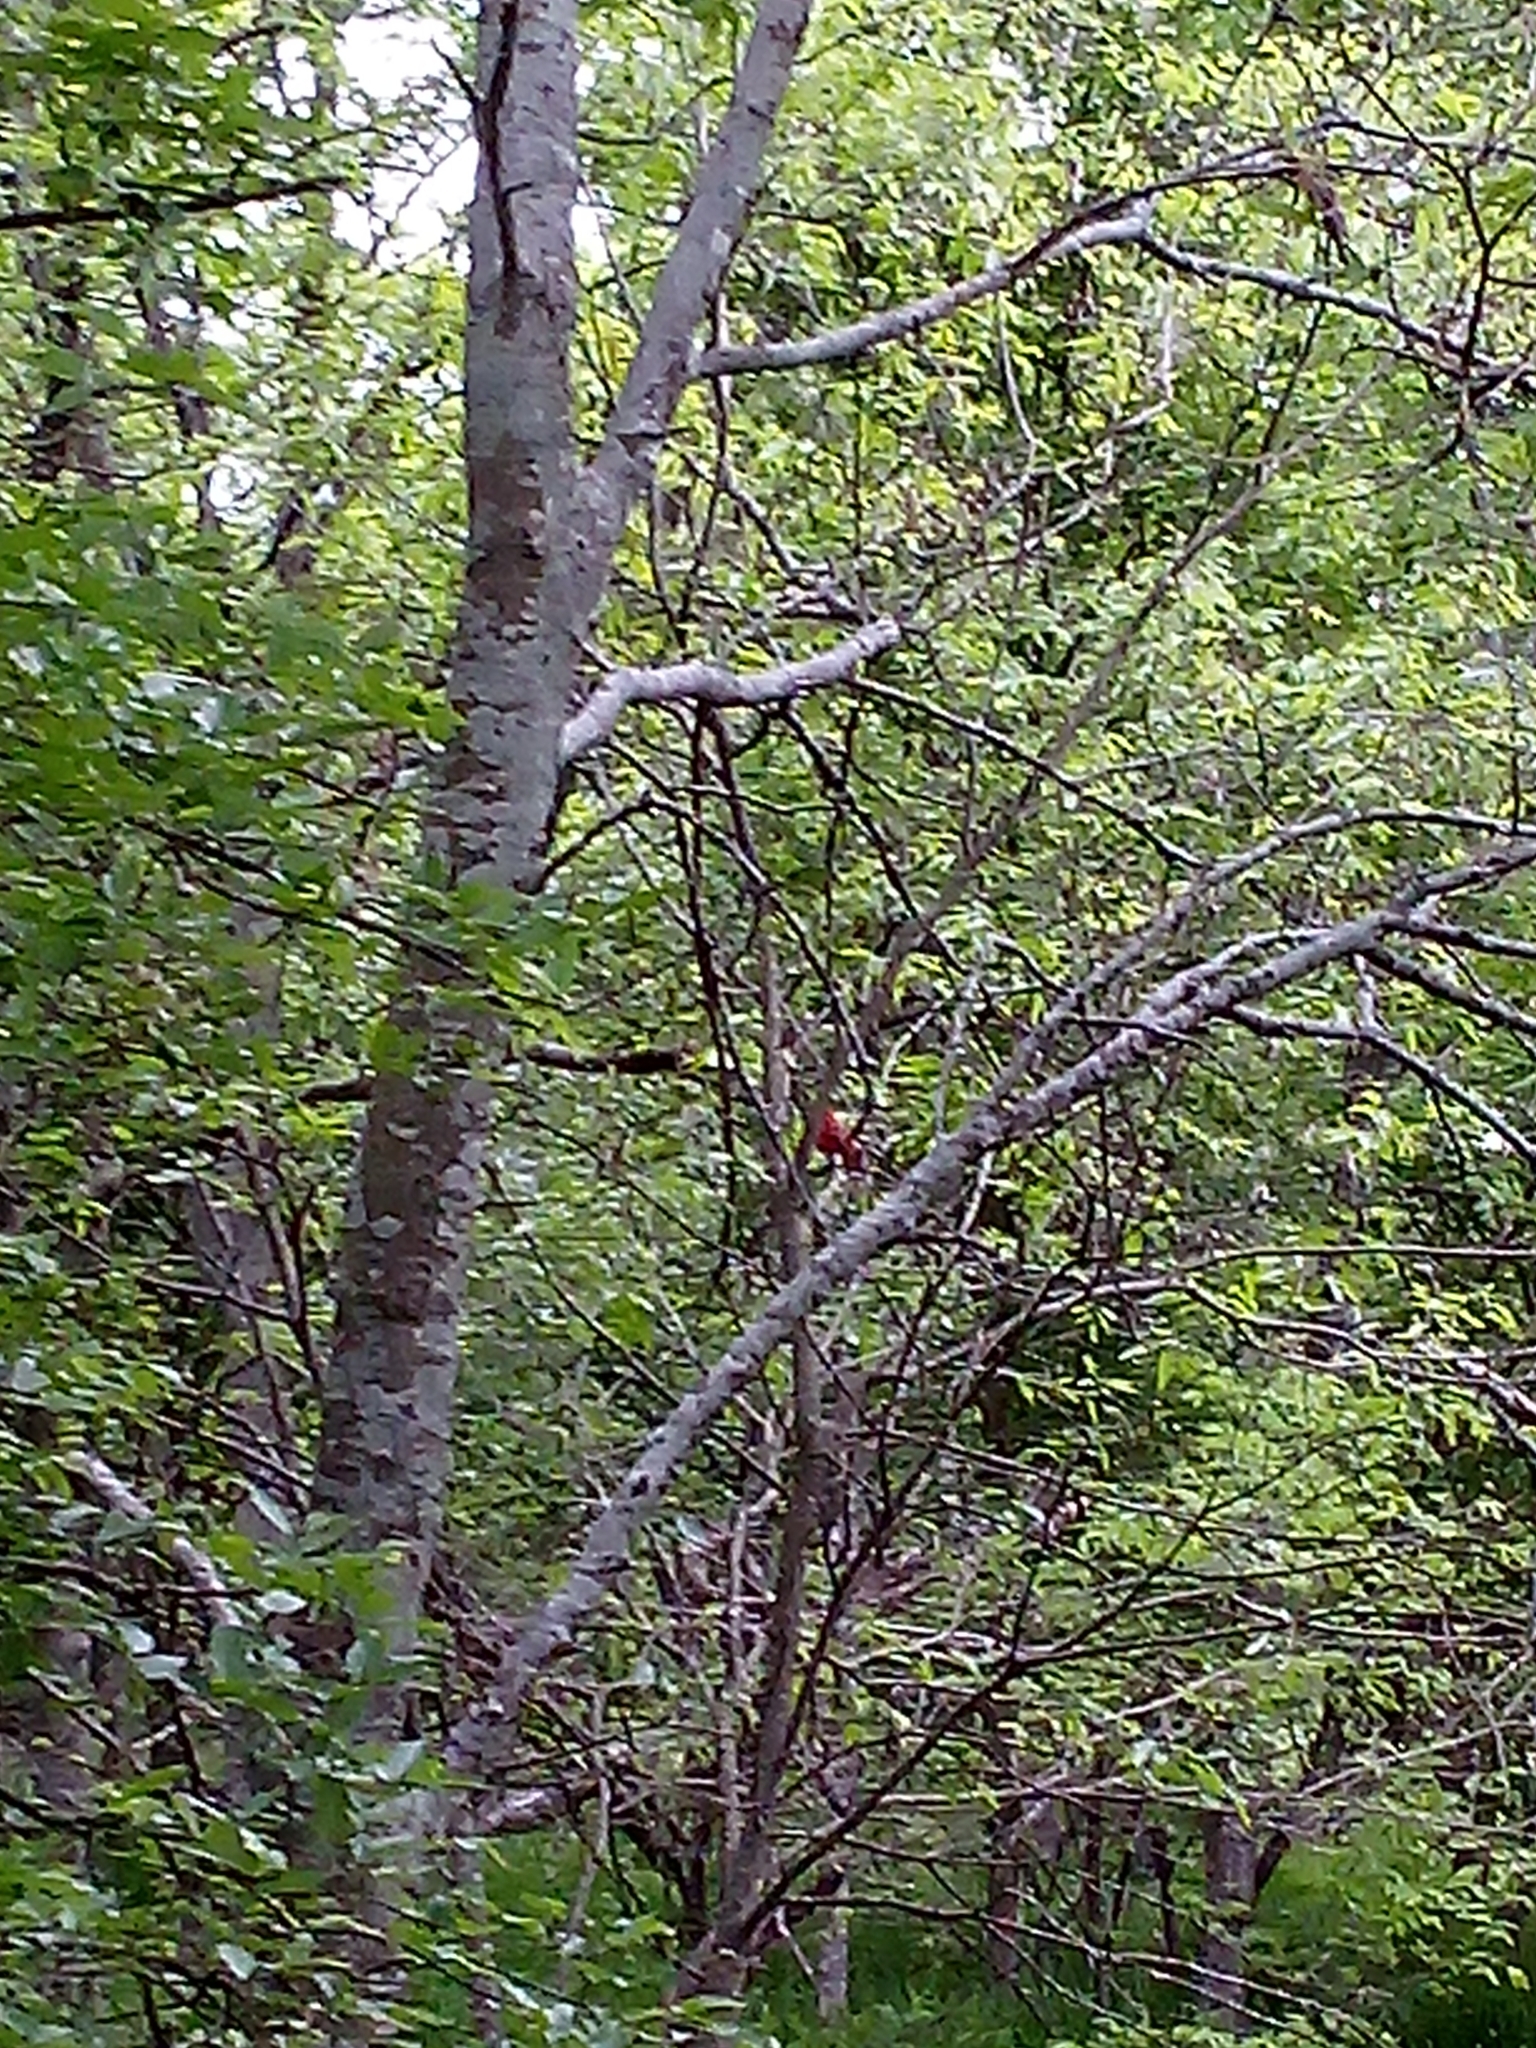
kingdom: Animalia
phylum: Chordata
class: Aves
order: Passeriformes
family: Cardinalidae
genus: Cardinalis
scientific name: Cardinalis cardinalis
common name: Northern cardinal
